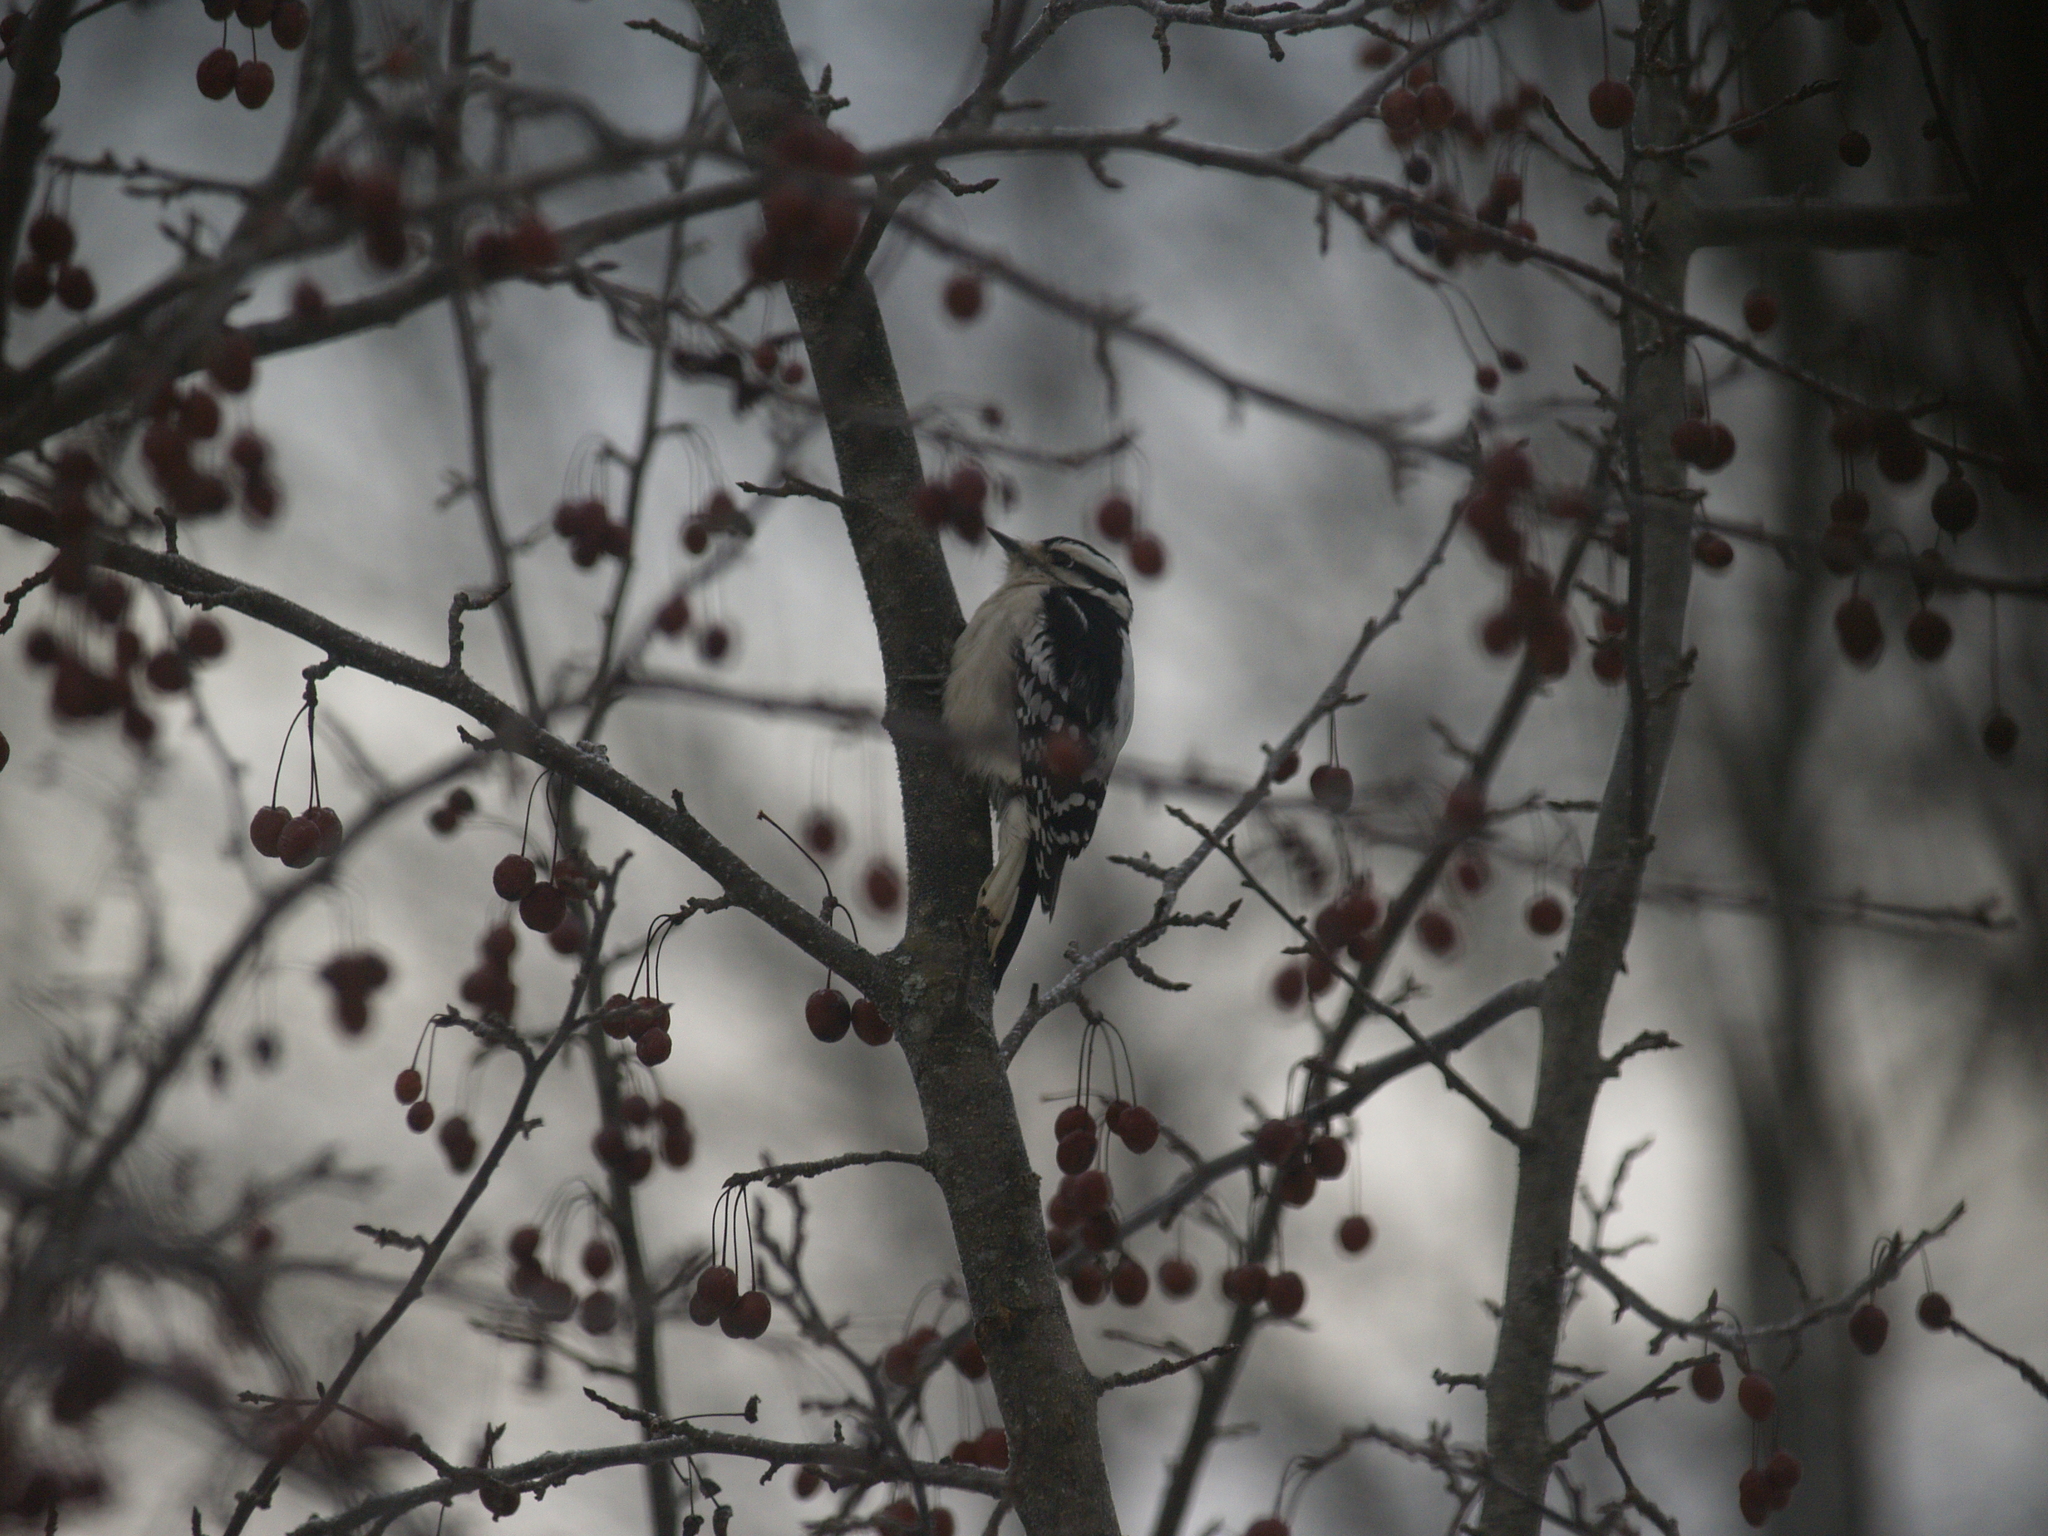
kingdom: Animalia
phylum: Chordata
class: Aves
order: Piciformes
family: Picidae
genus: Dryobates
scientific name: Dryobates pubescens
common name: Downy woodpecker
